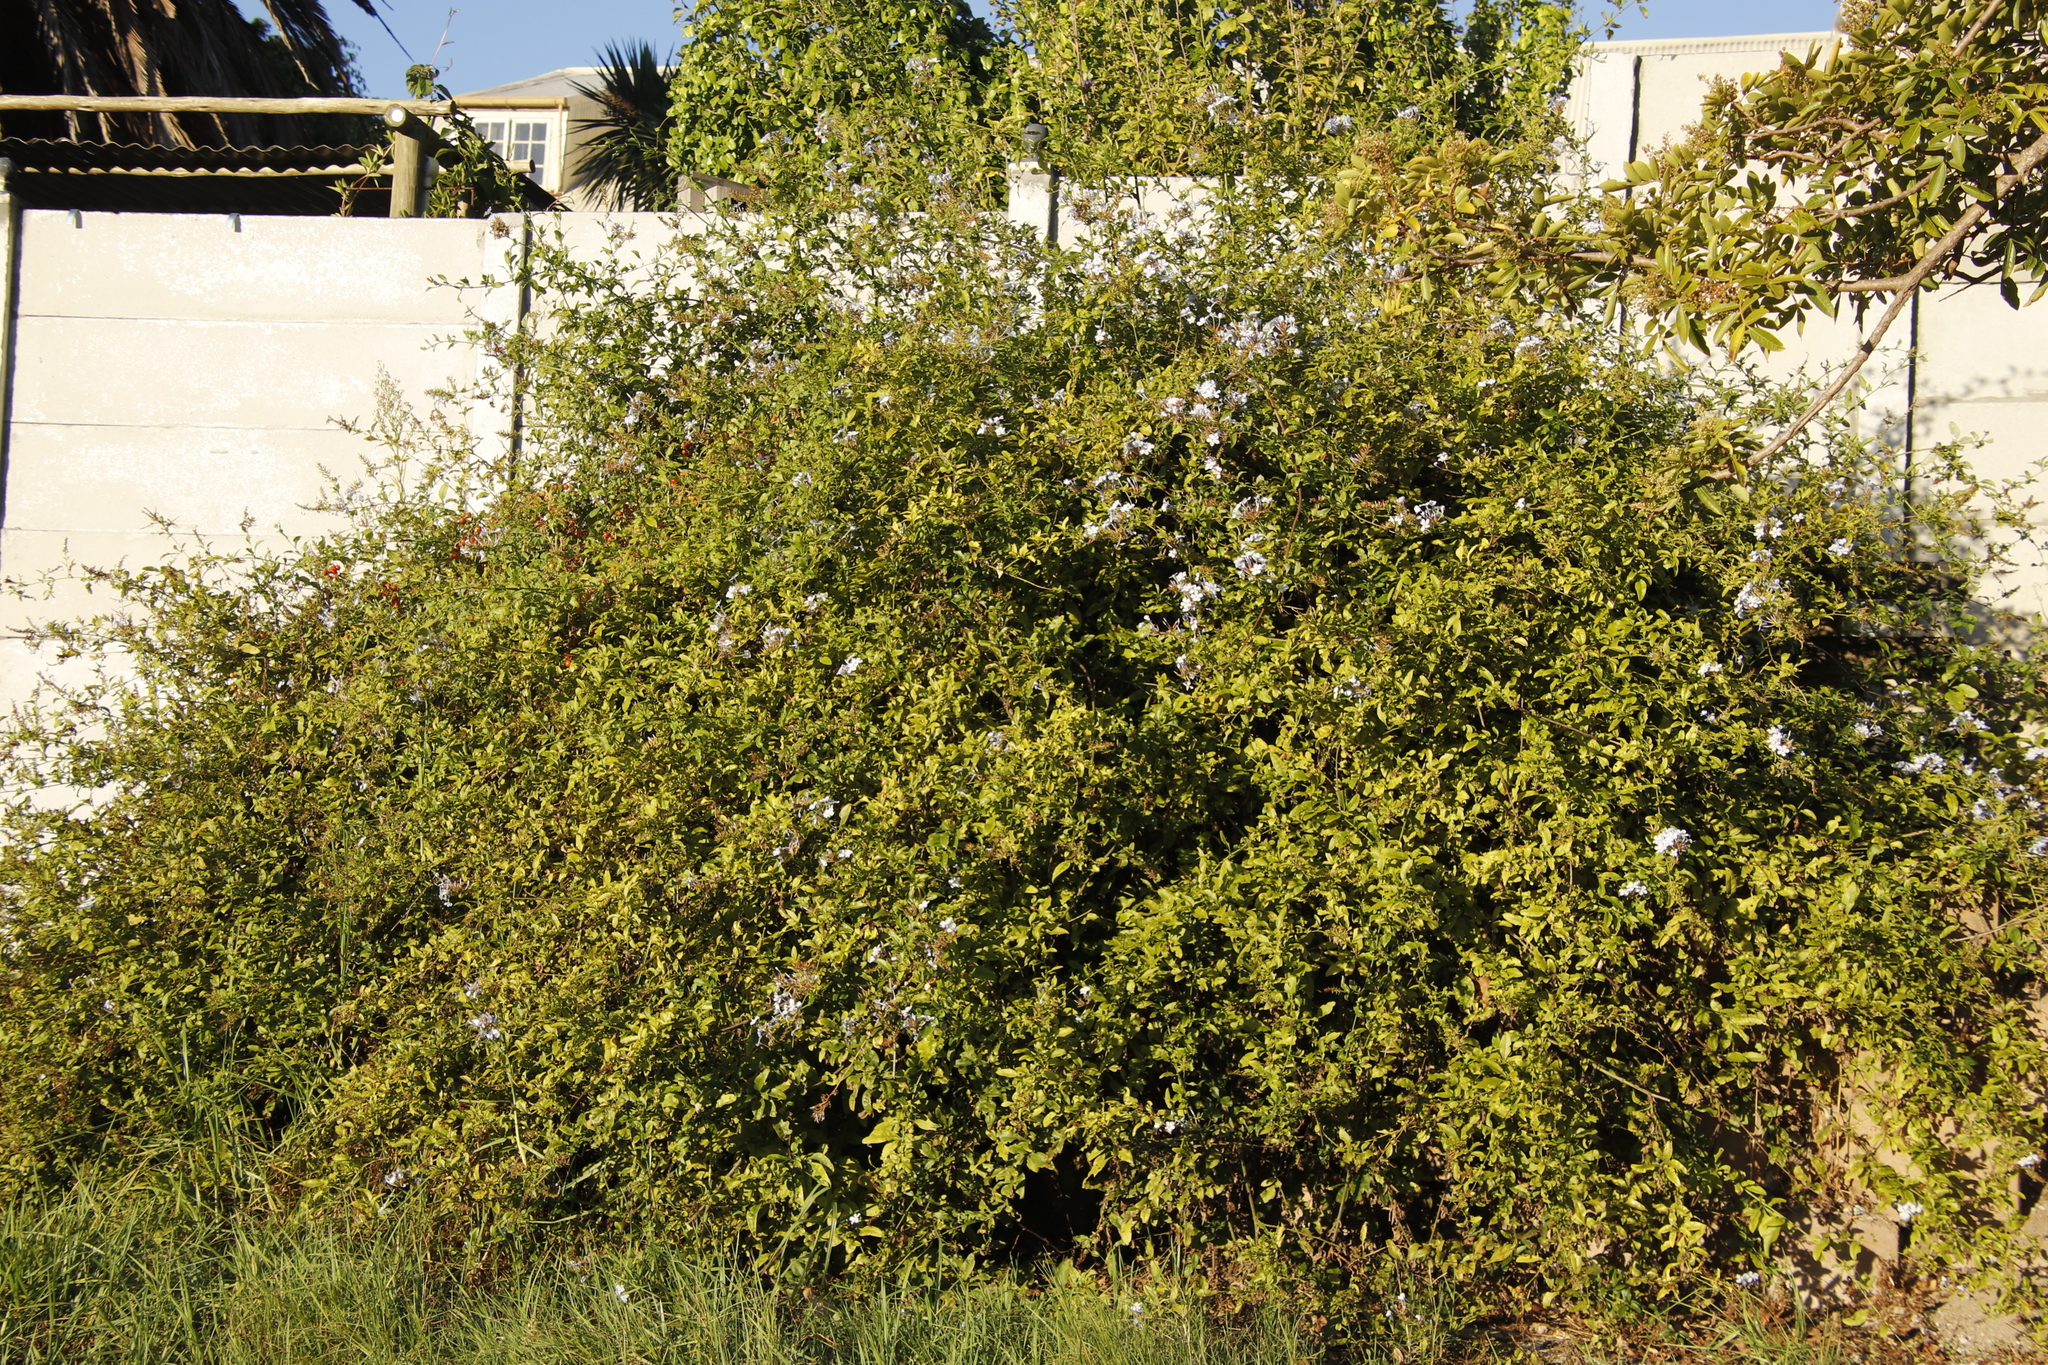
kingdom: Plantae
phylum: Tracheophyta
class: Magnoliopsida
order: Caryophyllales
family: Plumbaginaceae
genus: Plumbago
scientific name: Plumbago auriculata
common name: Cape leadwort
